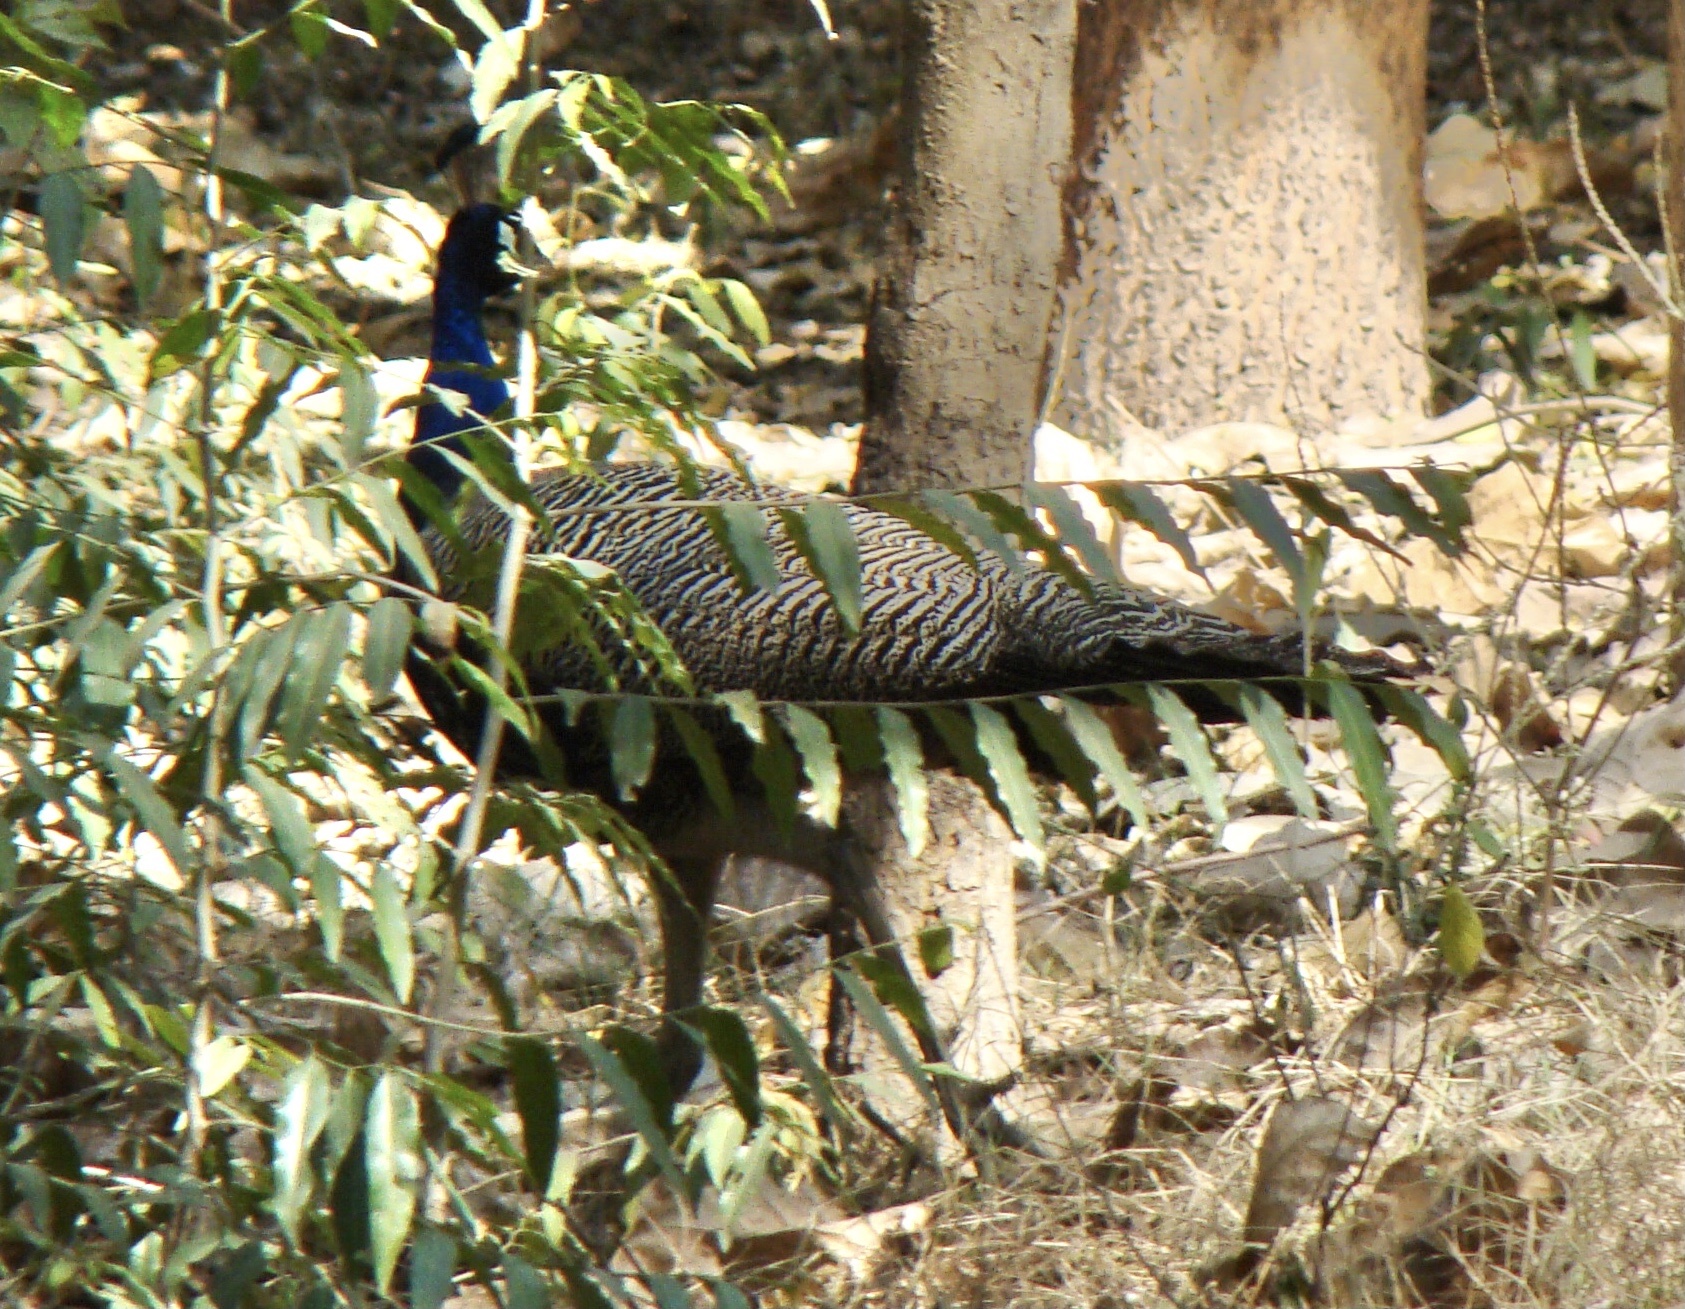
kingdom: Animalia
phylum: Chordata
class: Aves
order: Galliformes
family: Phasianidae
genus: Pavo
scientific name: Pavo cristatus
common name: Indian peafowl
